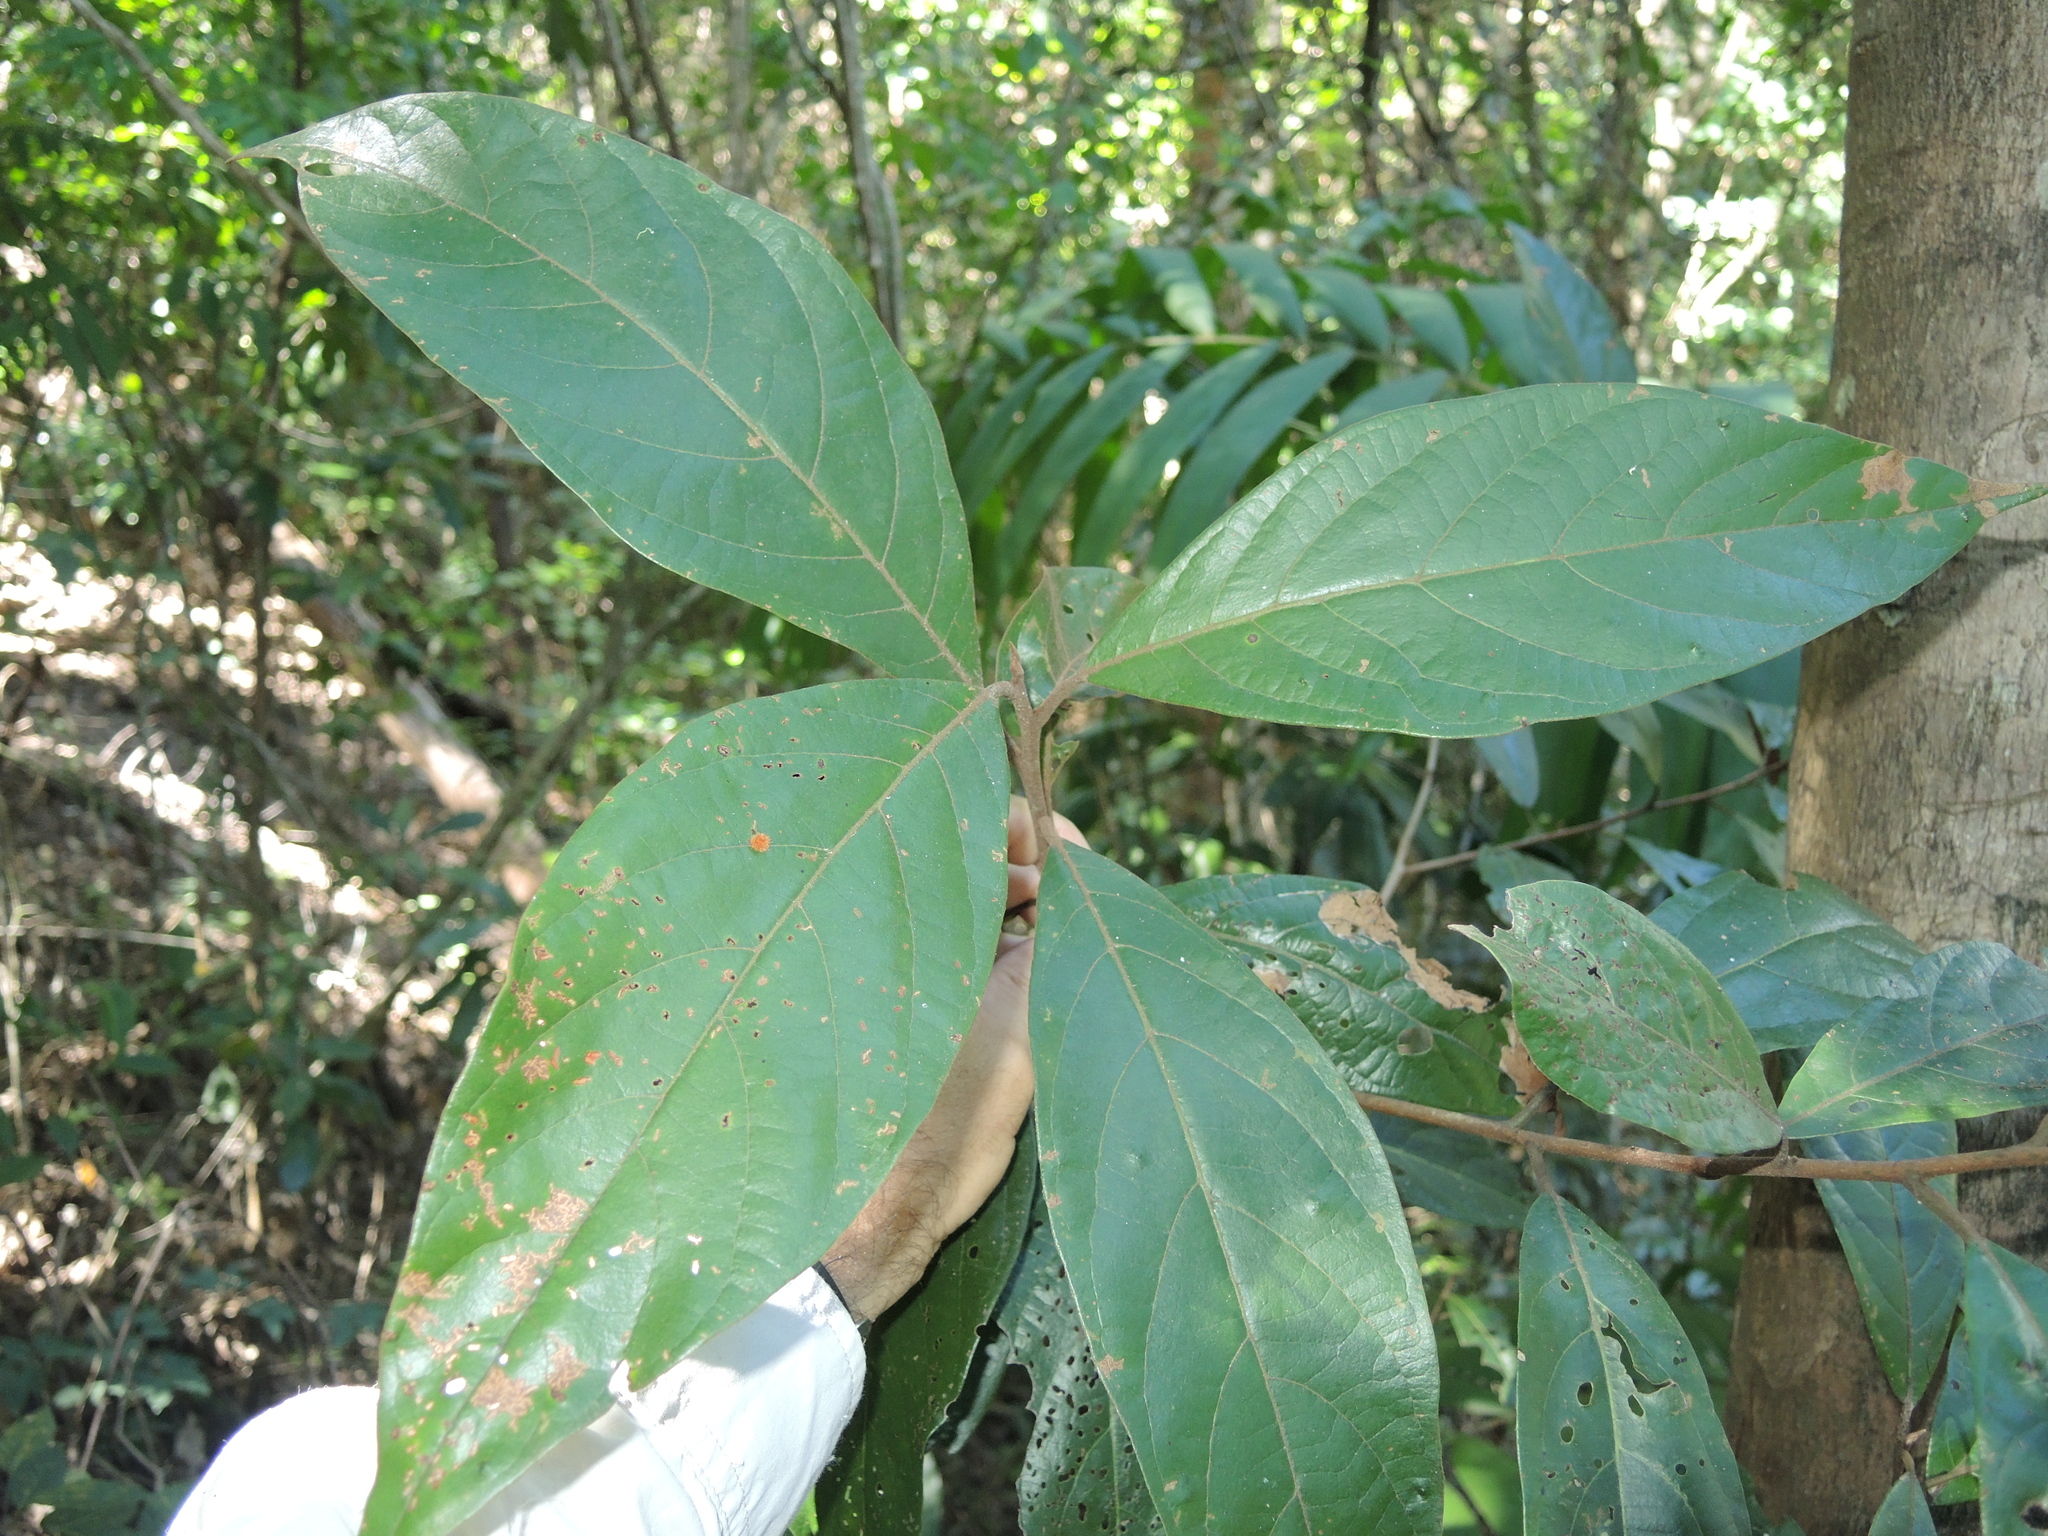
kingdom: Plantae
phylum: Tracheophyta
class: Magnoliopsida
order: Laurales
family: Lauraceae
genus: Litsea
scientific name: Litsea leefeana
